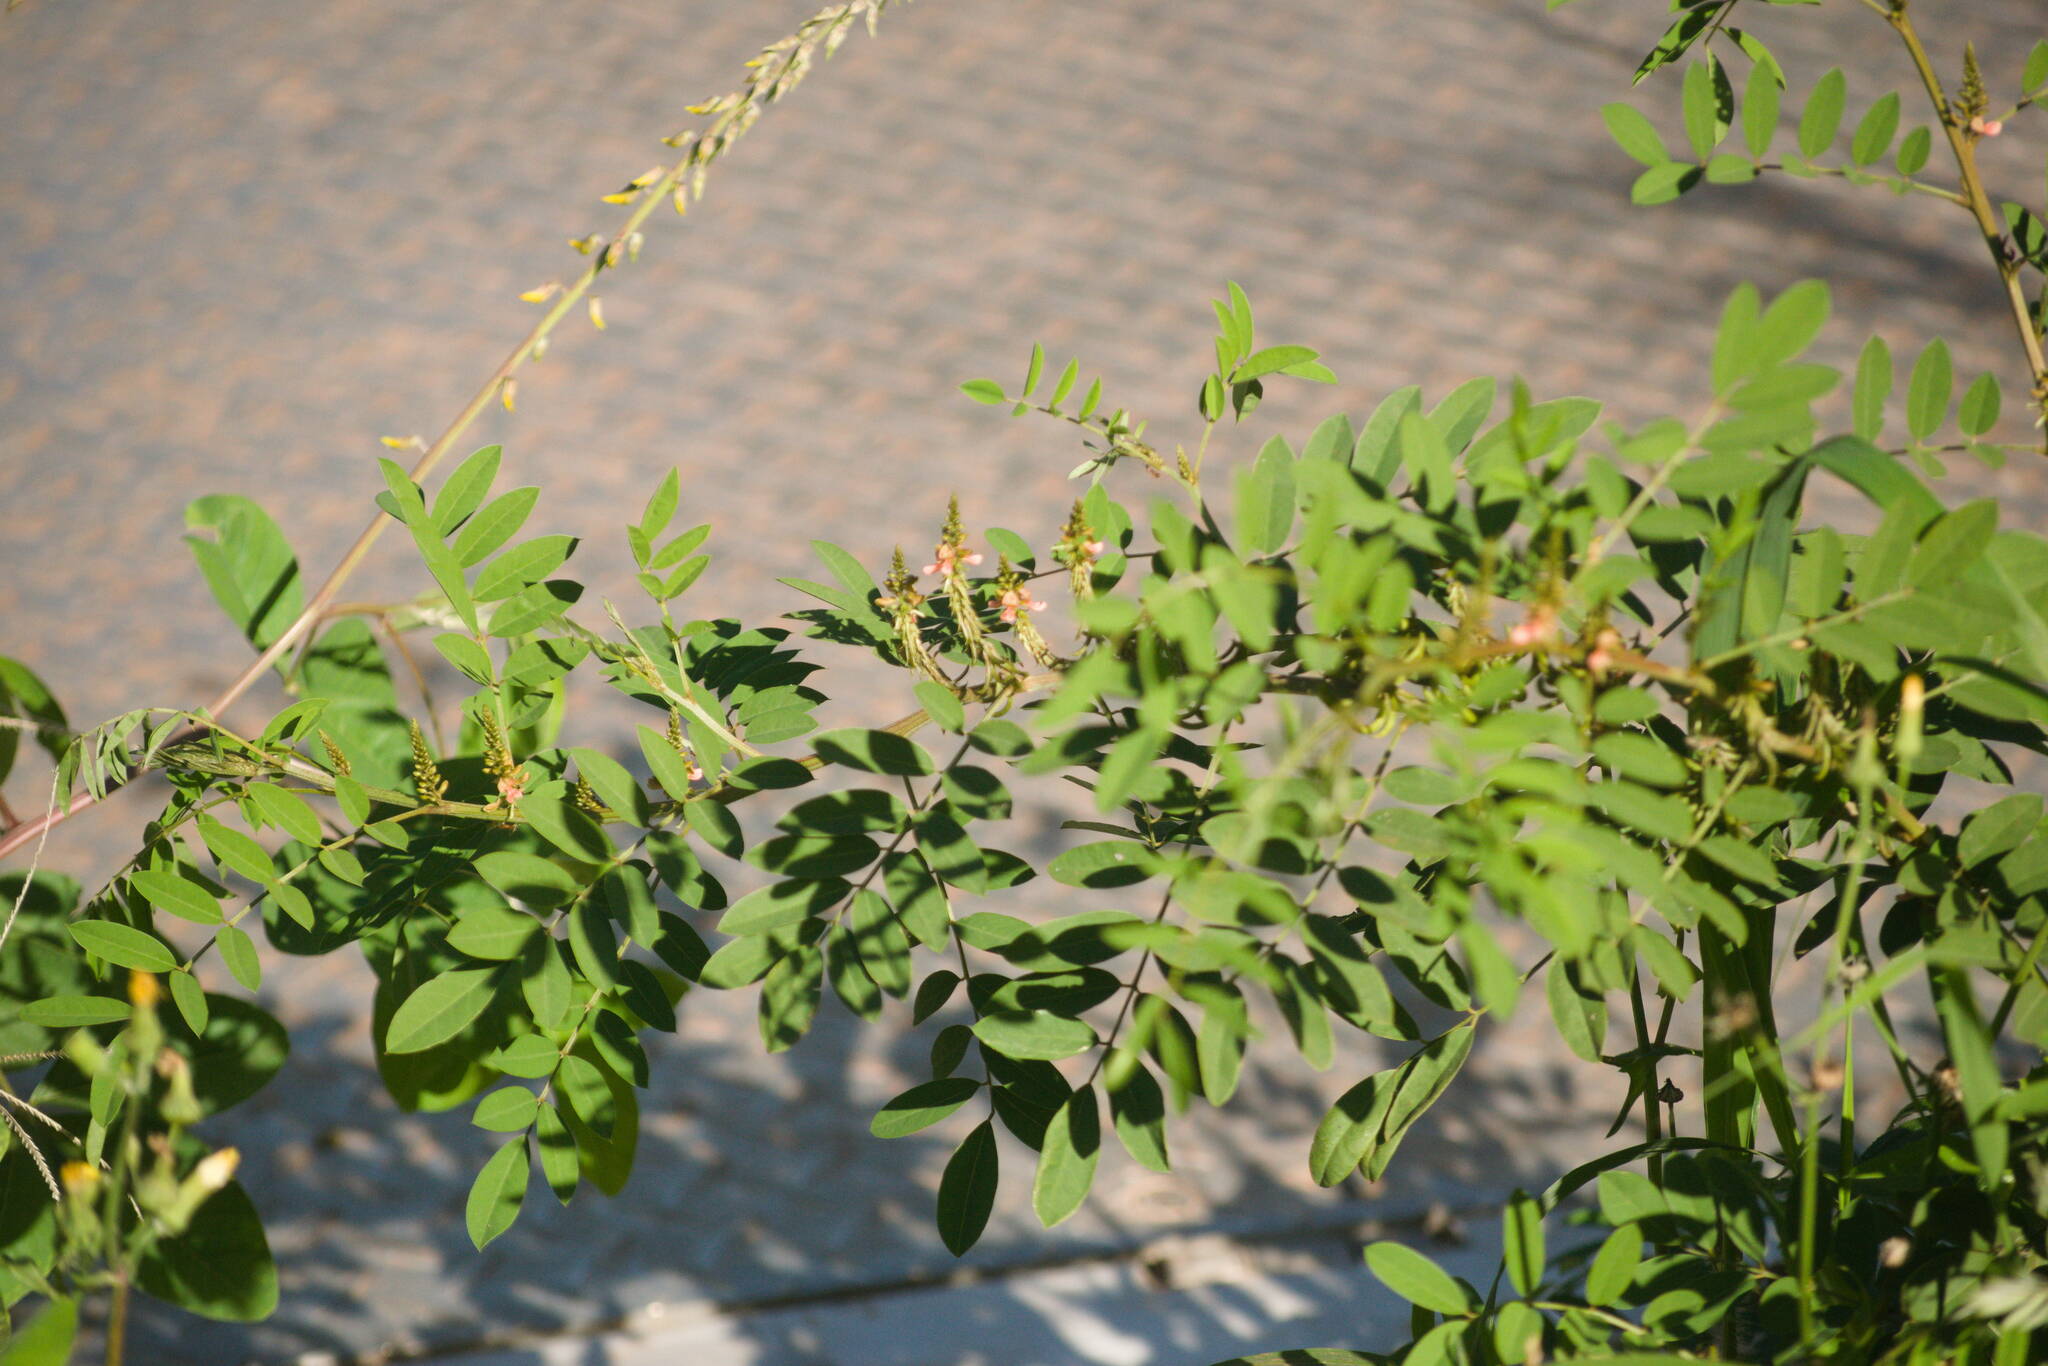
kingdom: Plantae
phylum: Tracheophyta
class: Magnoliopsida
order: Fabales
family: Fabaceae
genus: Indigofera
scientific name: Indigofera suffruticosa
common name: Anil de pasto
